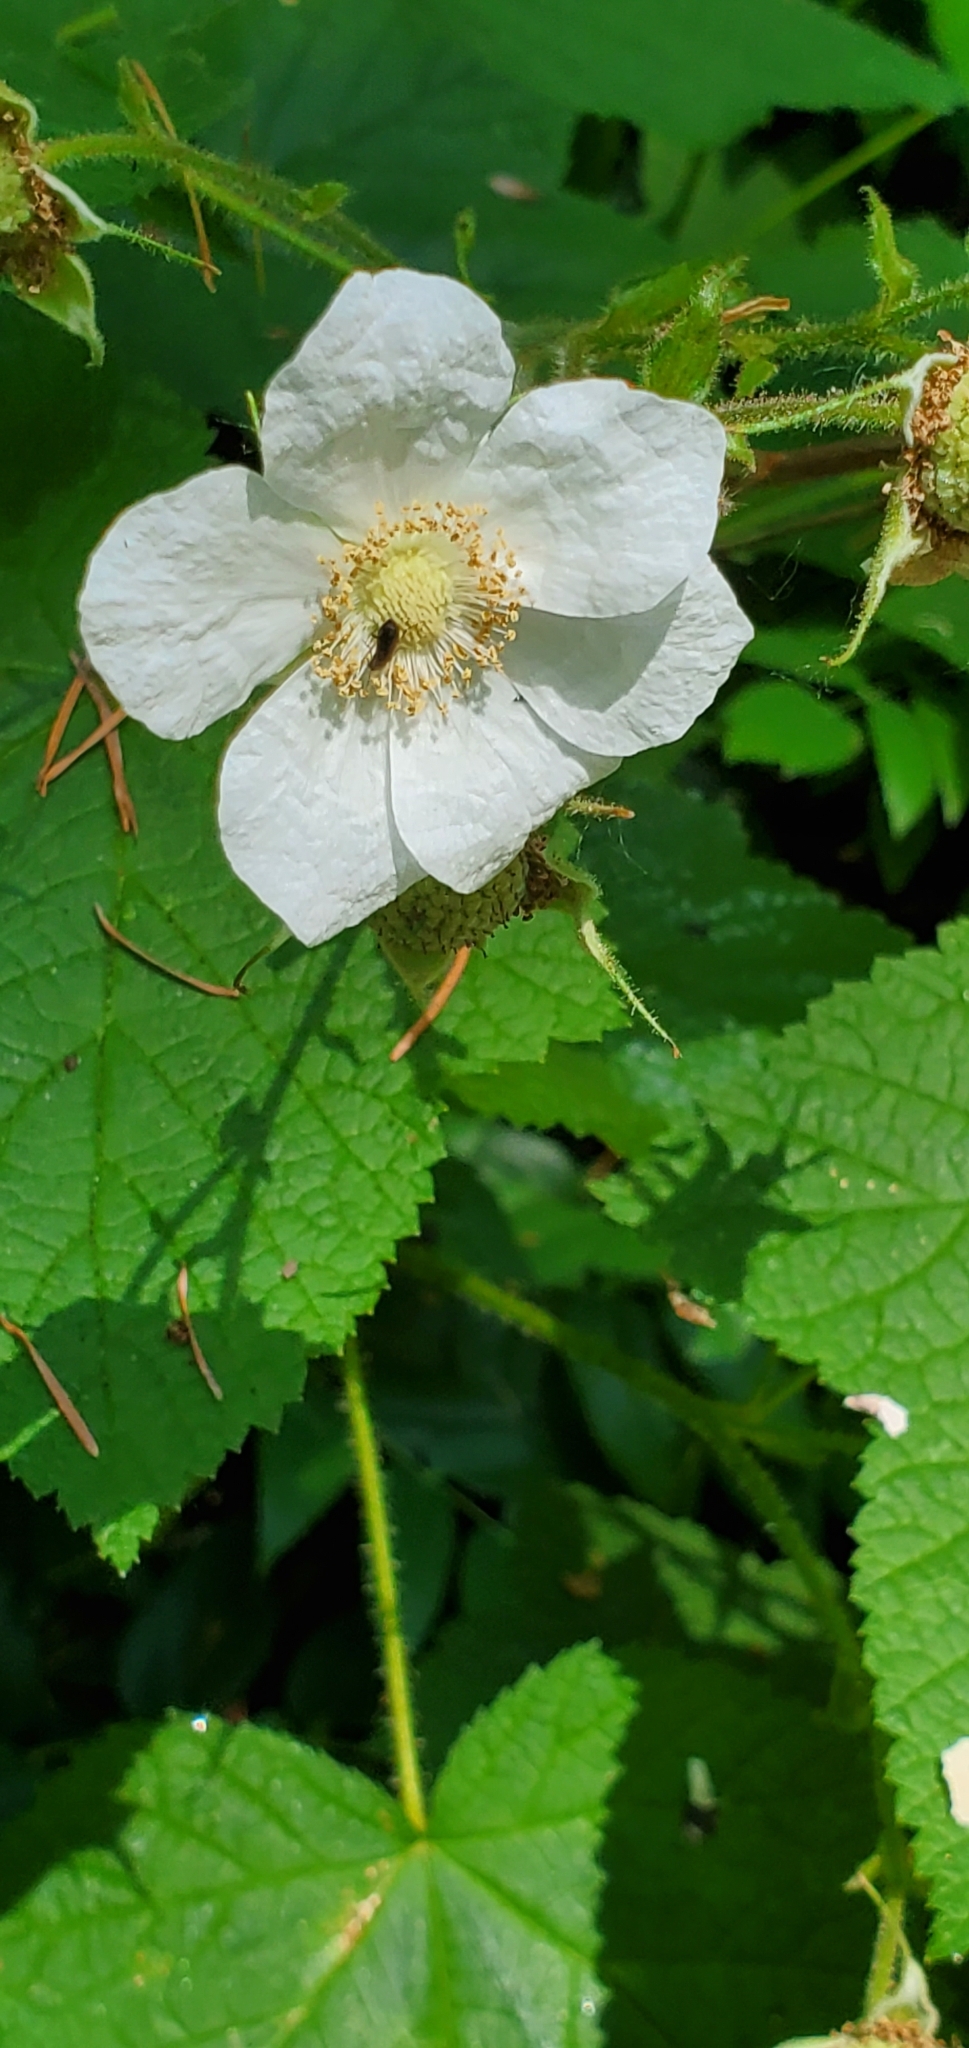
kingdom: Plantae
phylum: Tracheophyta
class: Magnoliopsida
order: Rosales
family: Rosaceae
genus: Rubus
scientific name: Rubus parviflorus
